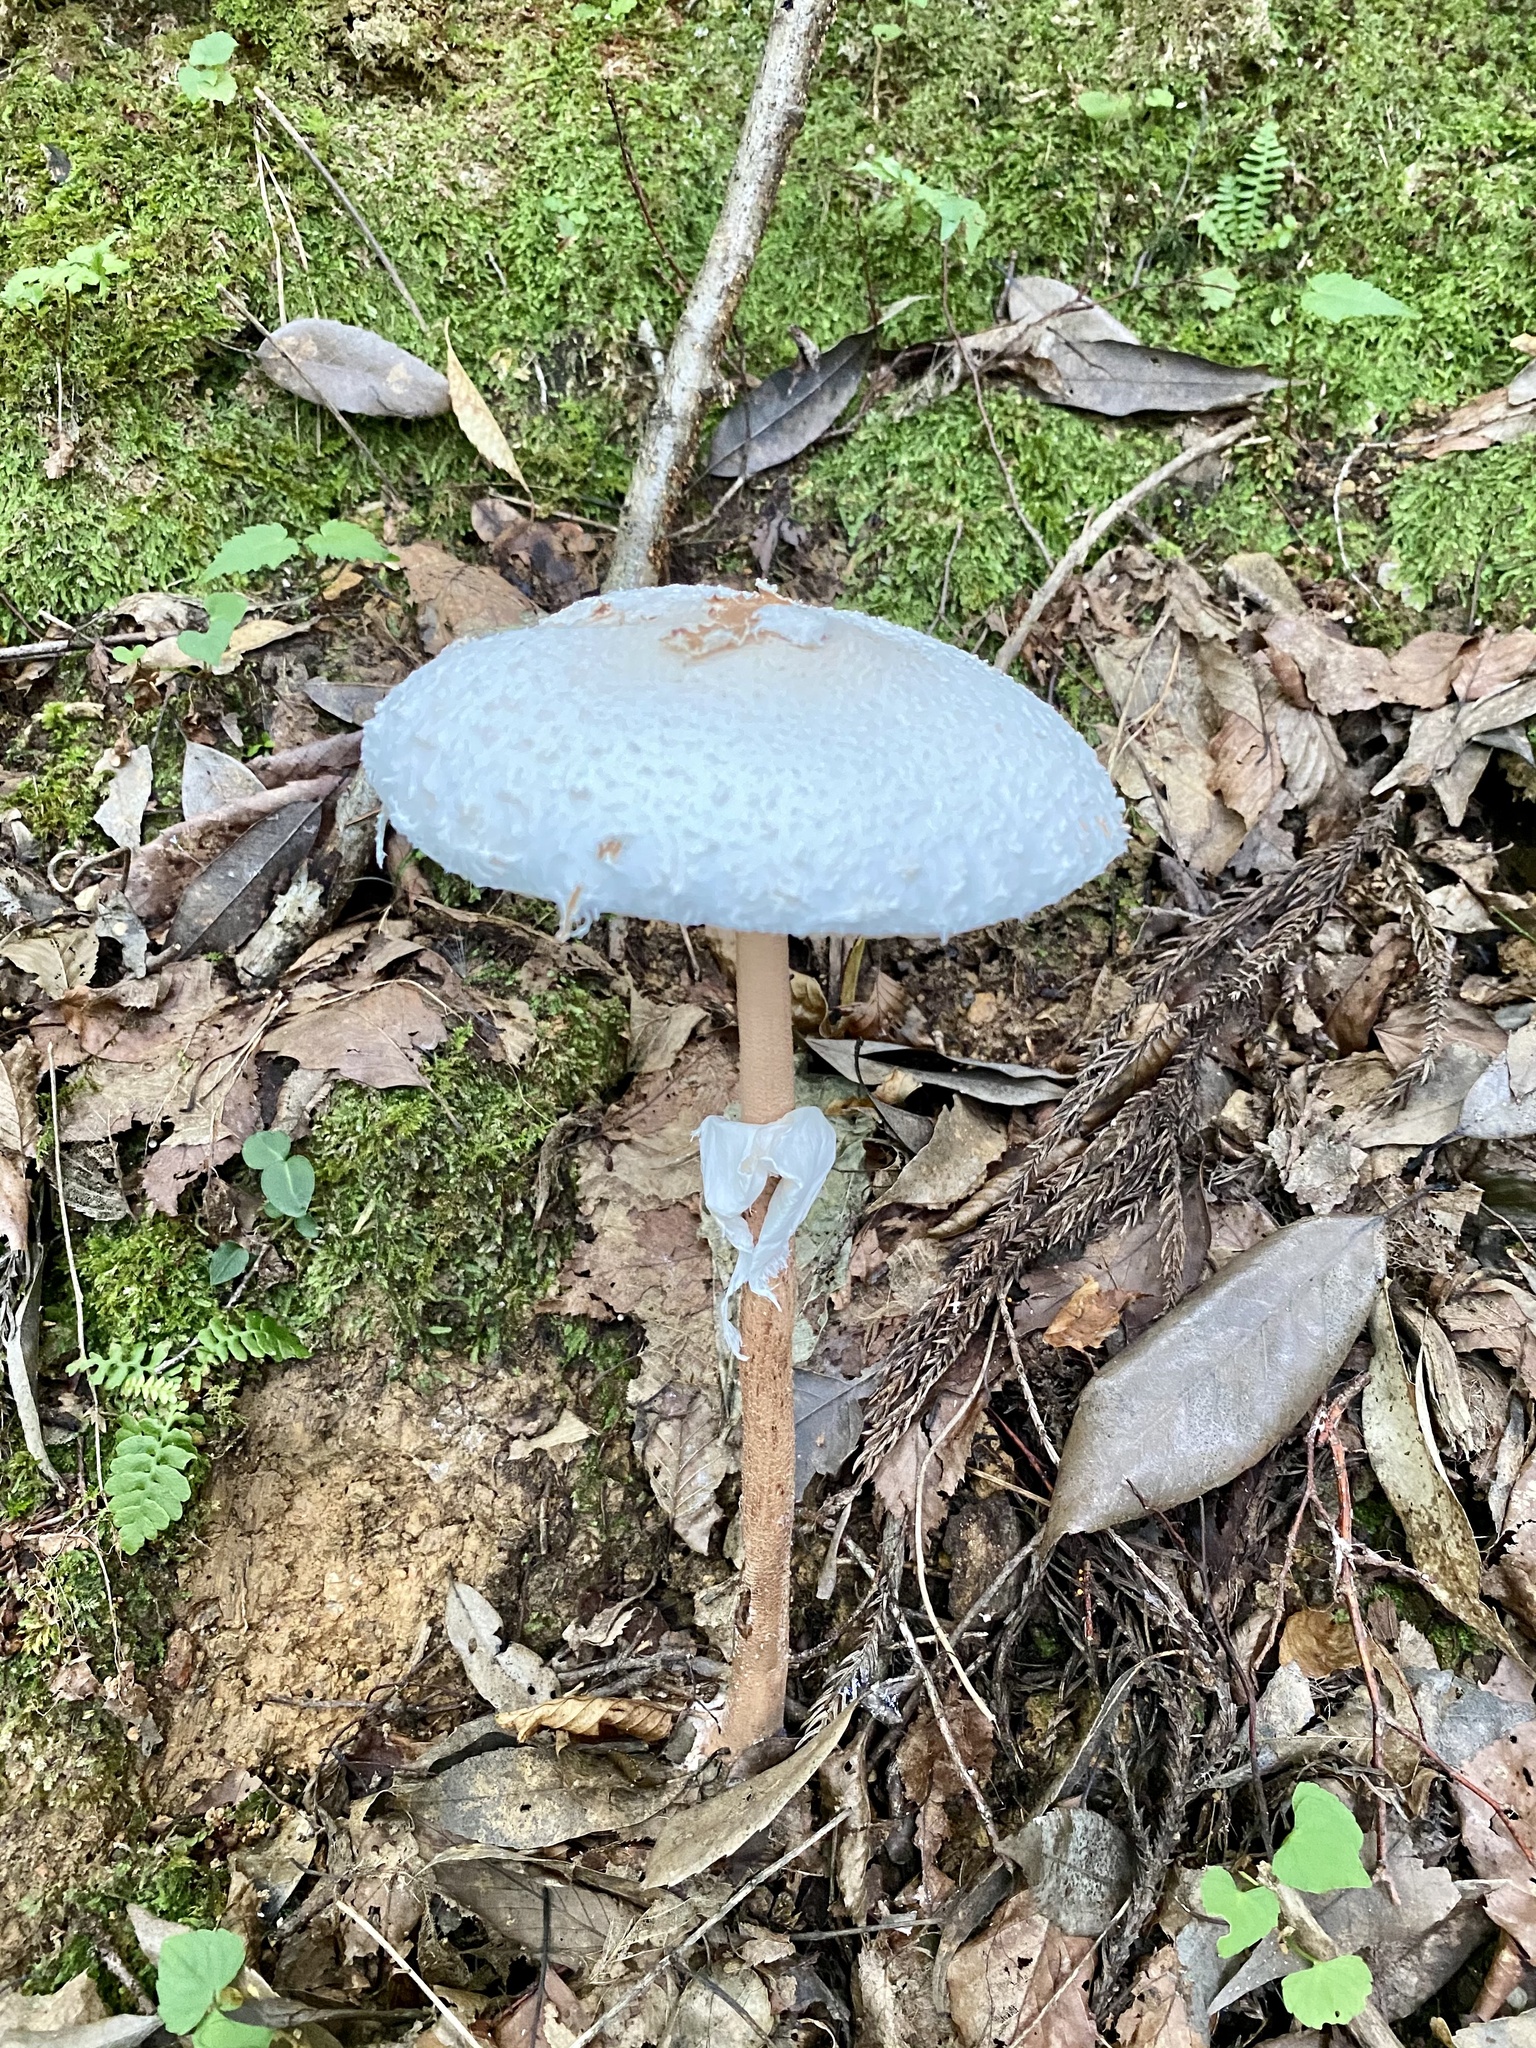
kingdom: Fungi
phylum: Basidiomycota
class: Agaricomycetes
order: Agaricales
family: Agaricaceae
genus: Macrolepiota
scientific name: Macrolepiota detersa
